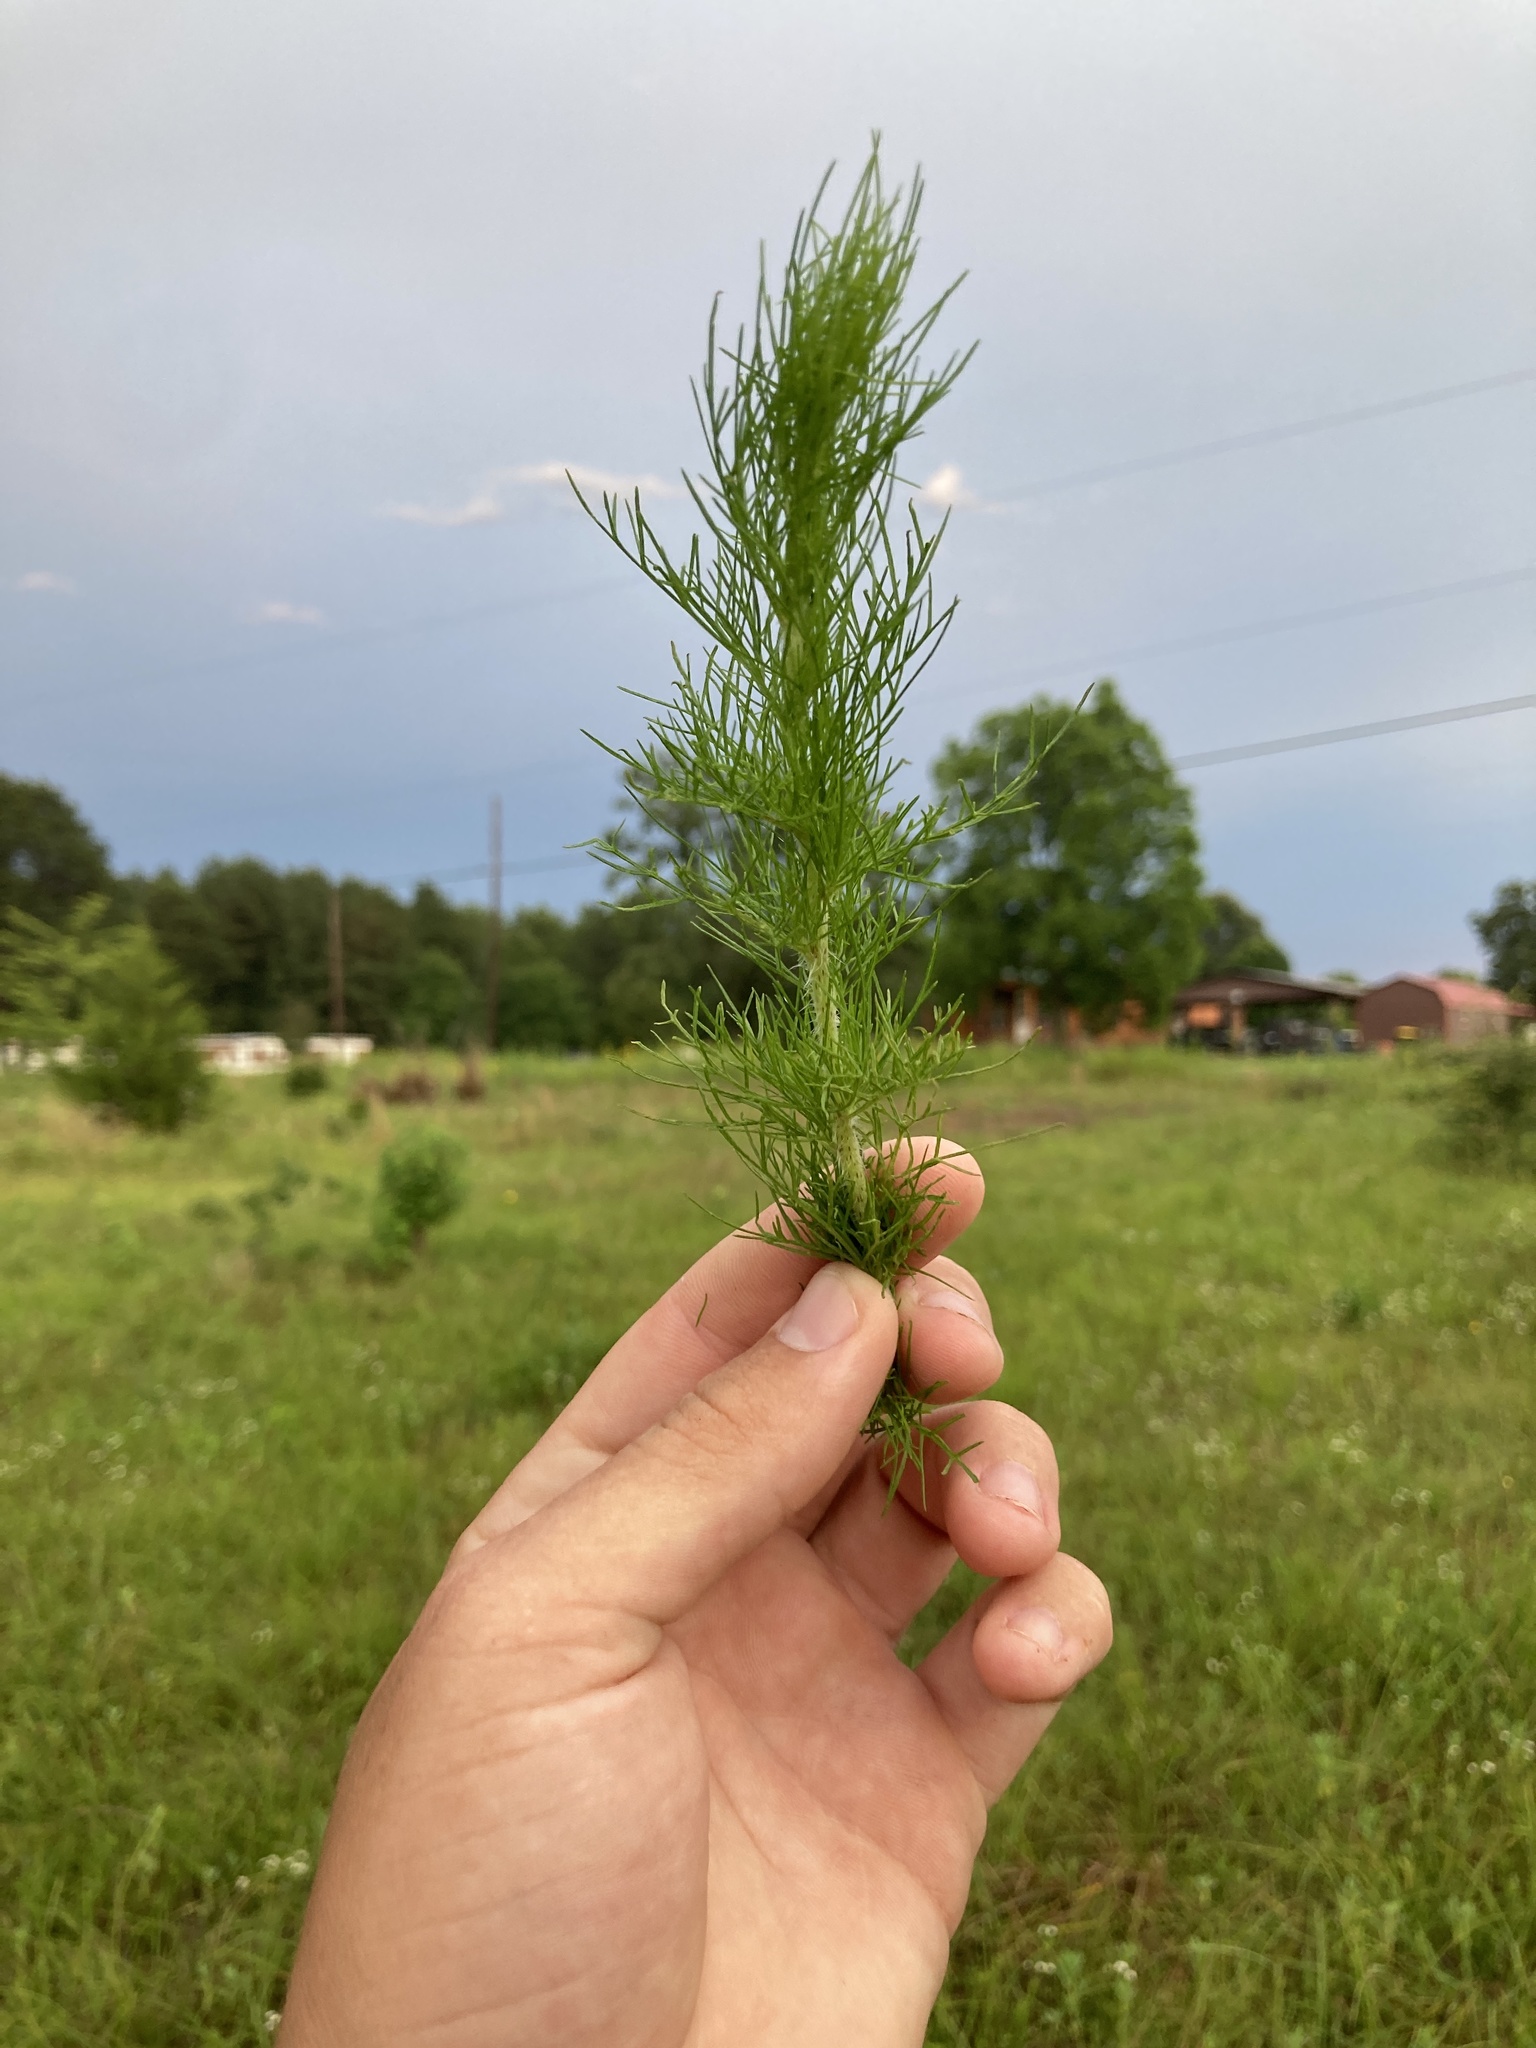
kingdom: Plantae
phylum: Tracheophyta
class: Magnoliopsida
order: Asterales
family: Asteraceae
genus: Eupatorium
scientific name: Eupatorium capillifolium
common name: Dog-fennel
